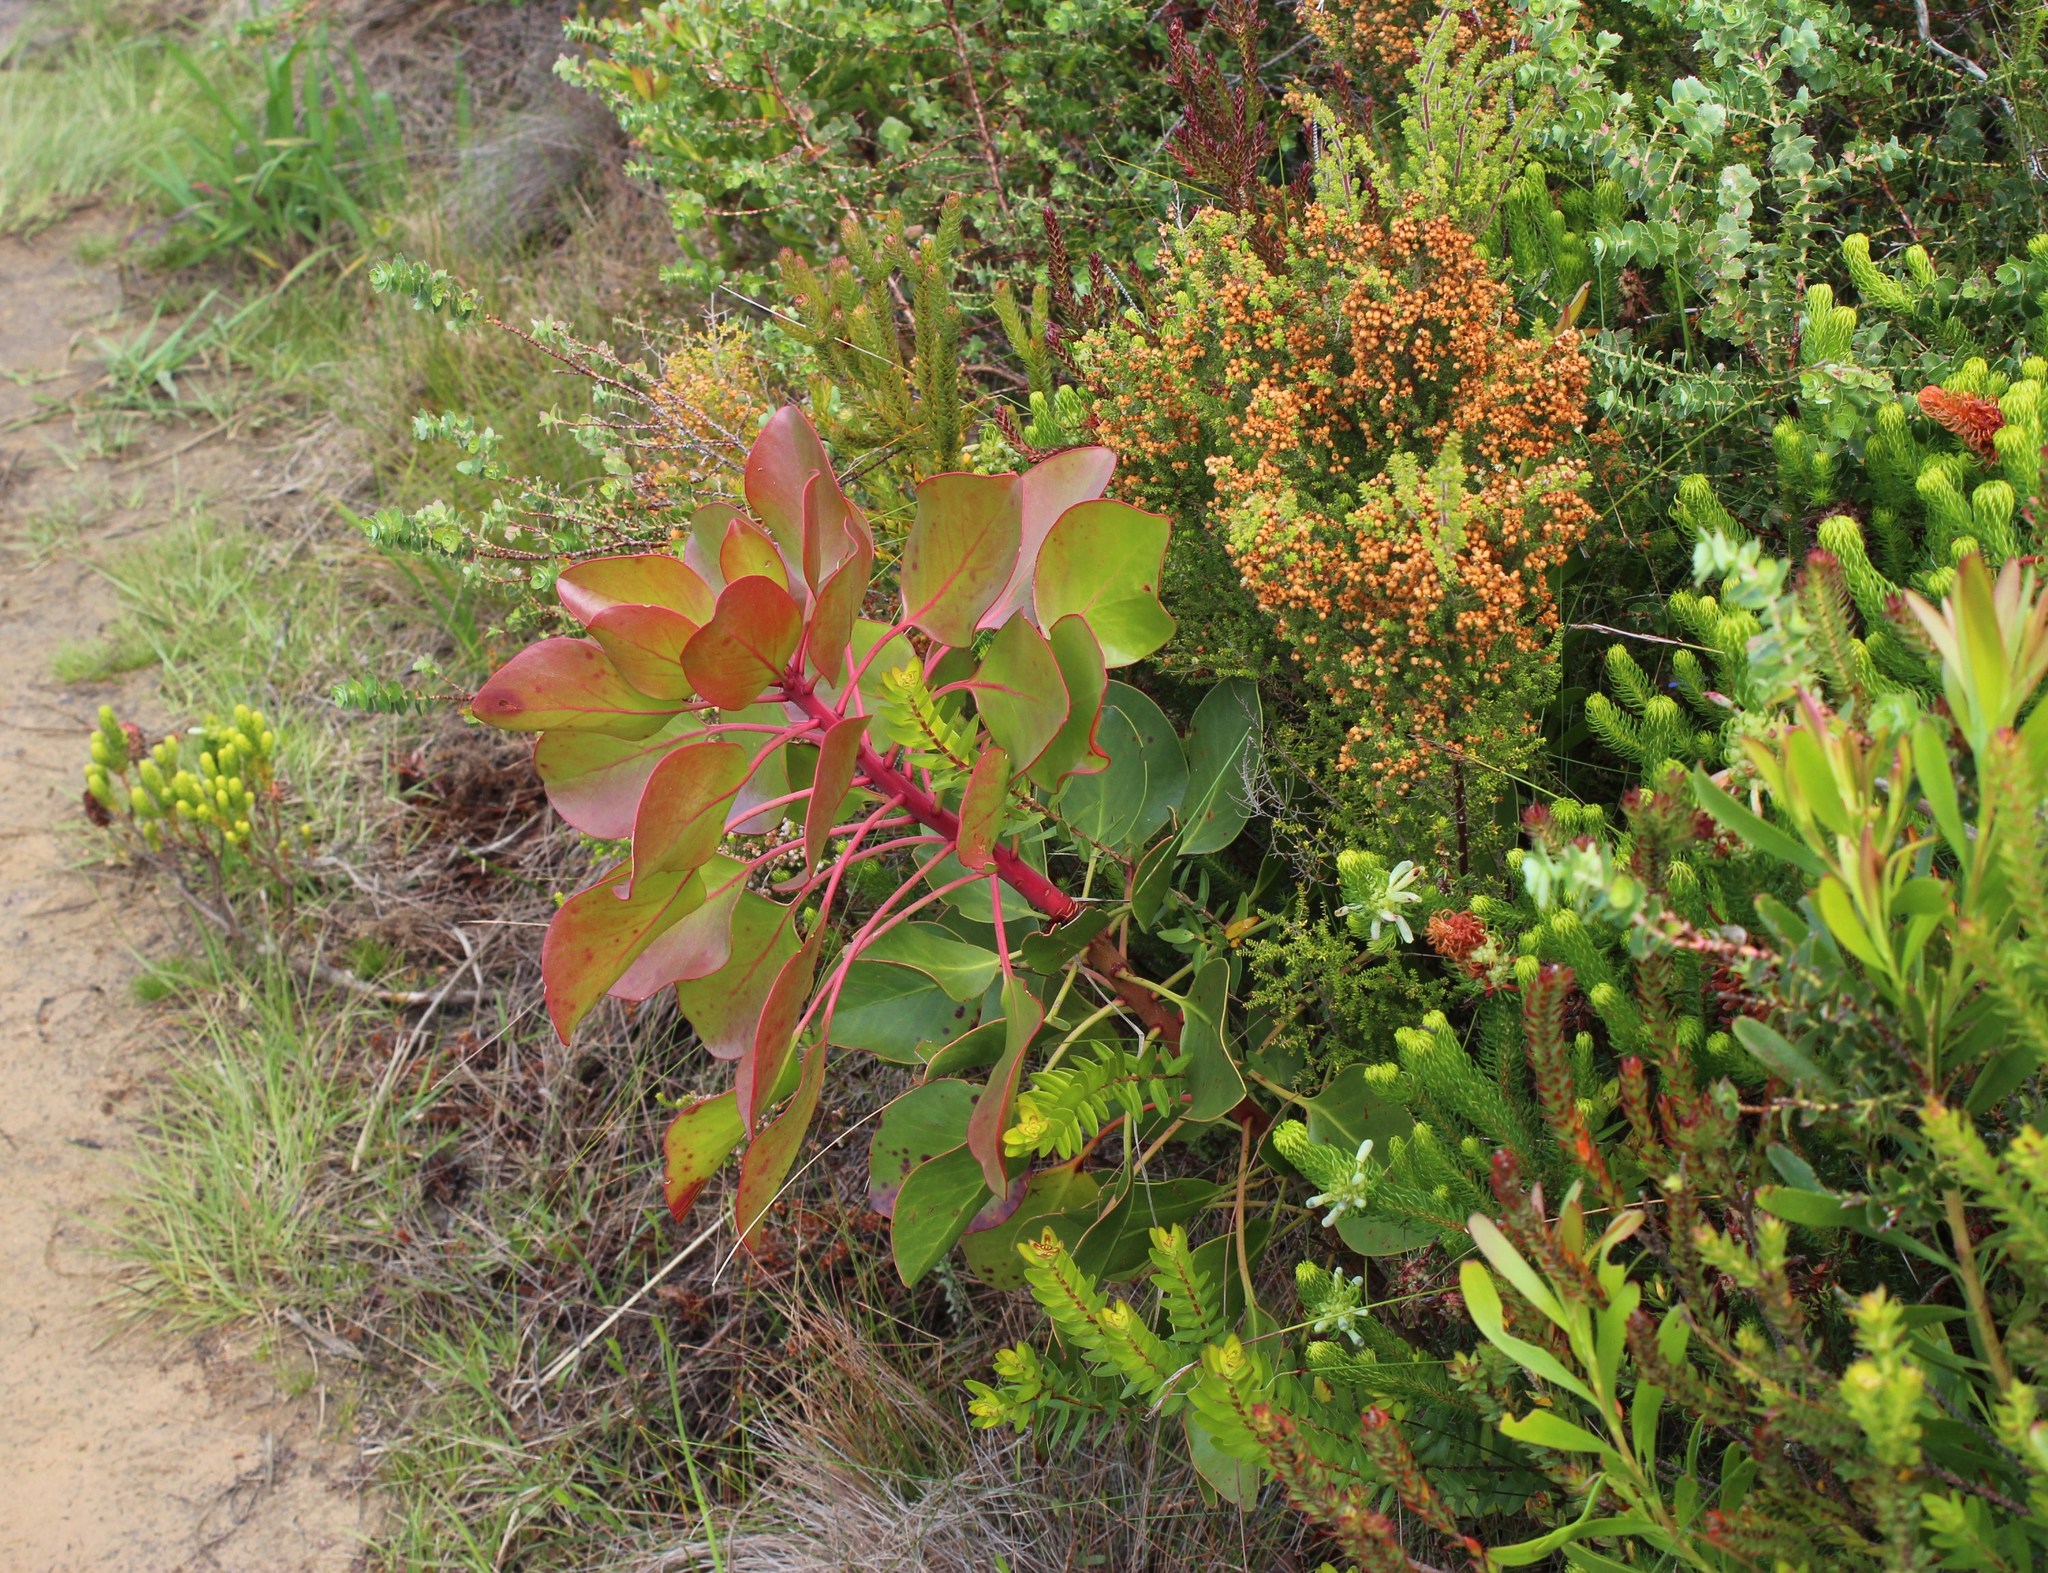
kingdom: Plantae
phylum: Tracheophyta
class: Magnoliopsida
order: Proteales
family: Proteaceae
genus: Protea
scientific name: Protea cynaroides
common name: King protea
